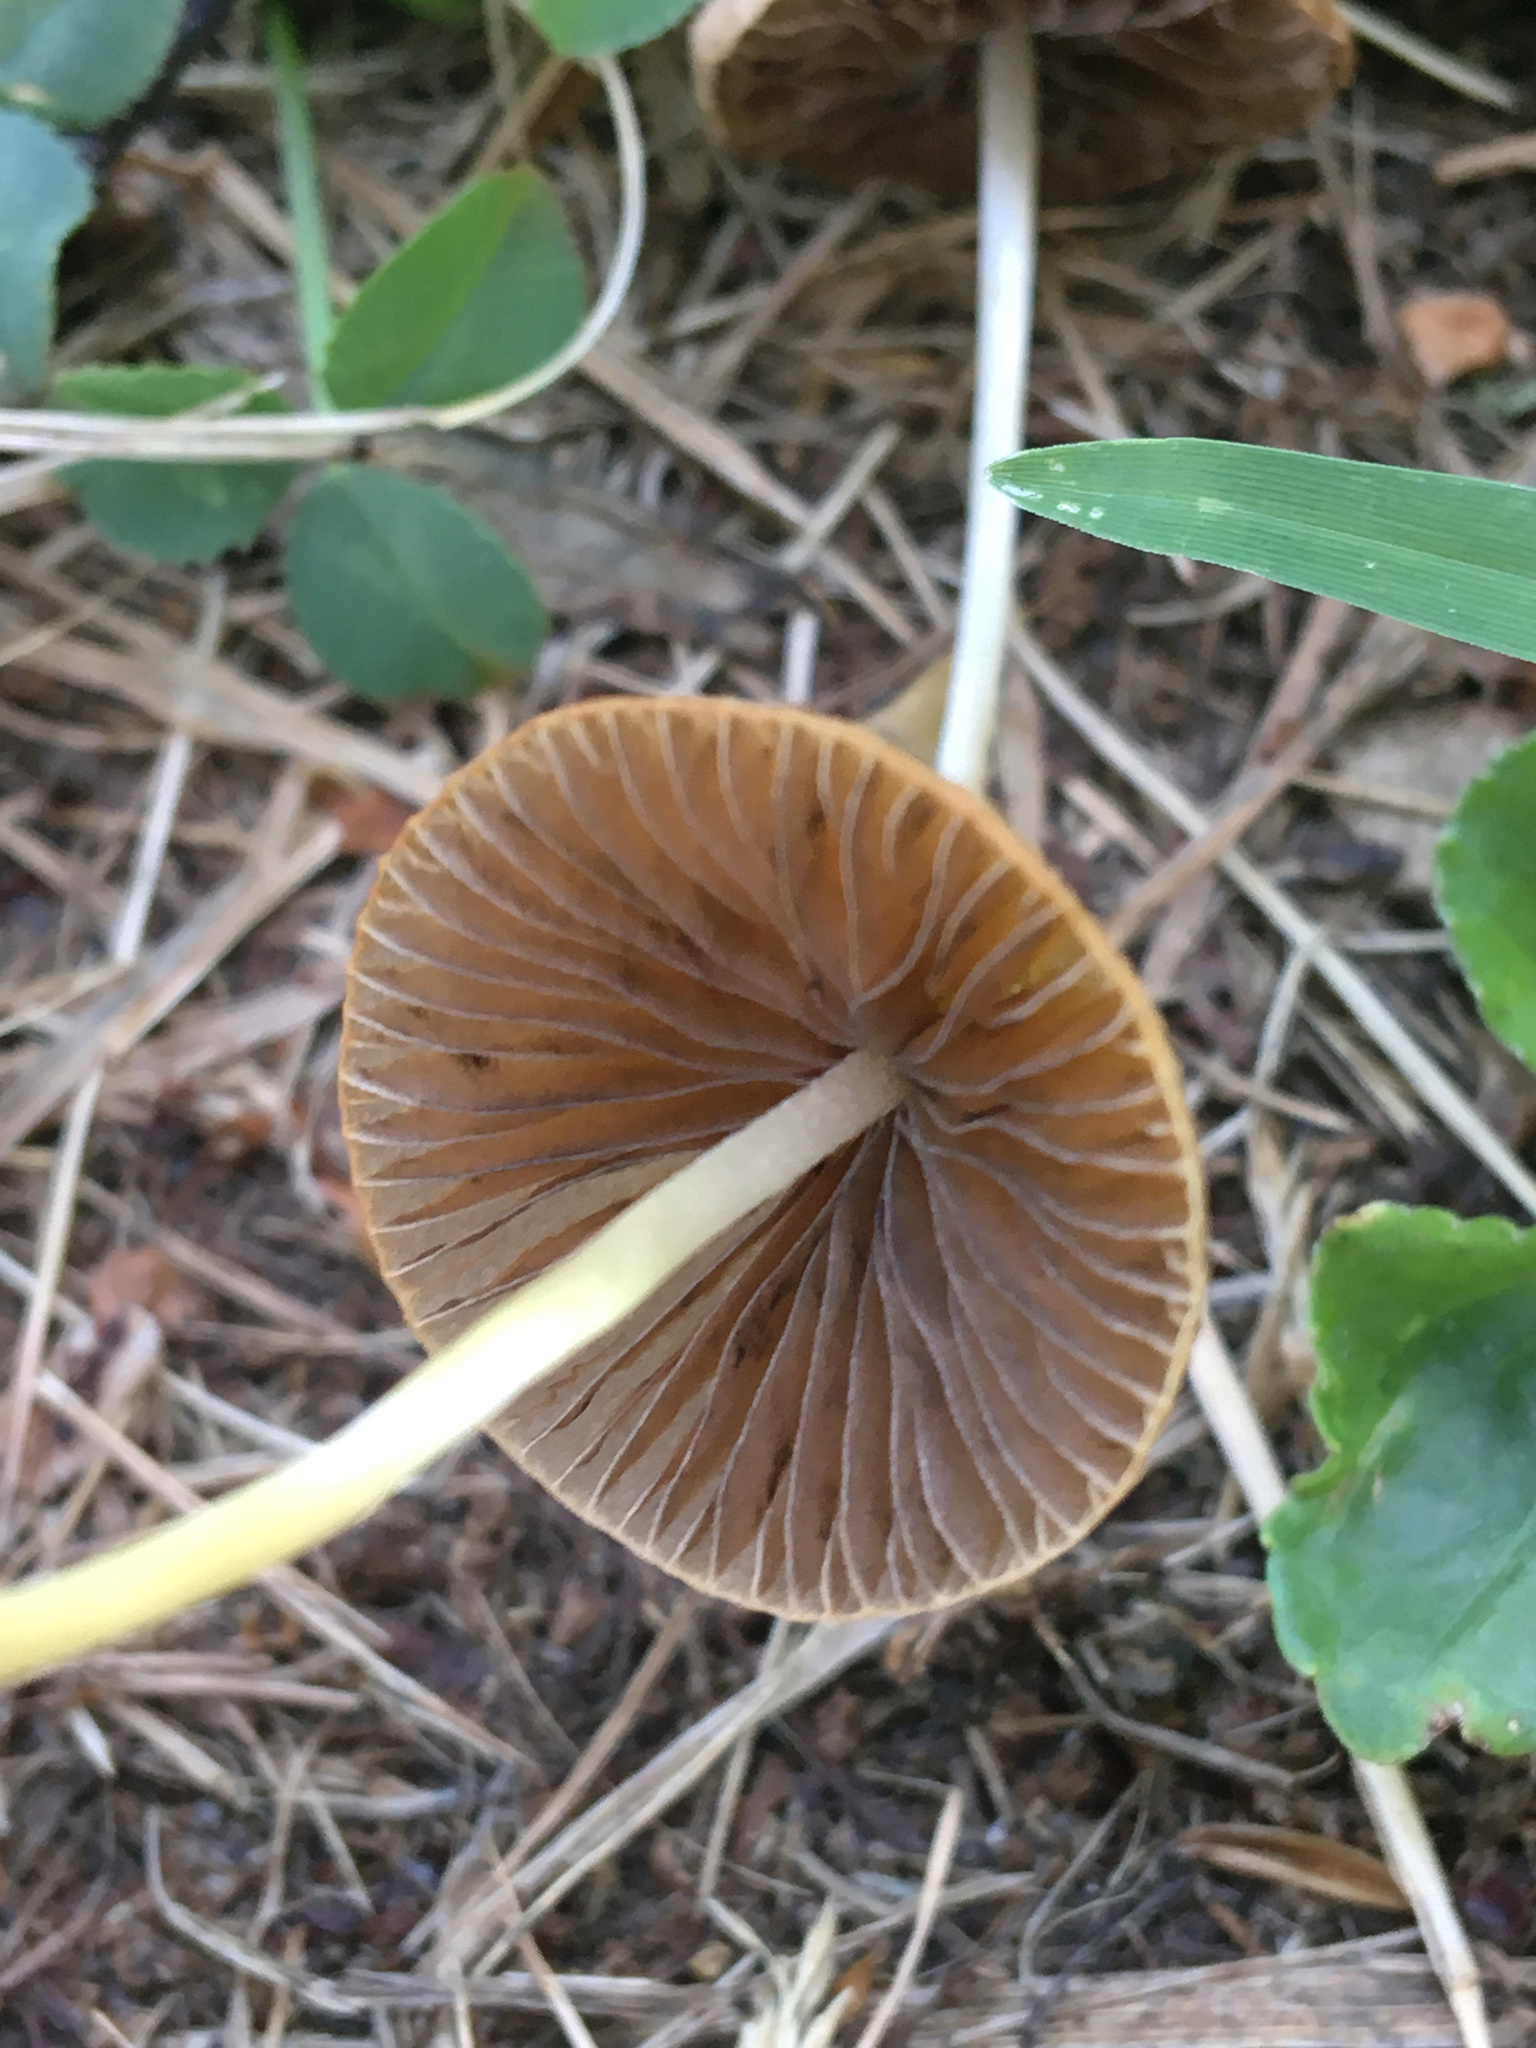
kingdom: Fungi
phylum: Basidiomycota
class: Agaricomycetes
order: Agaricales
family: Psathyrellaceae
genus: Psathyrella
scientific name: Psathyrella corrugis
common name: Red edge brittlestem
